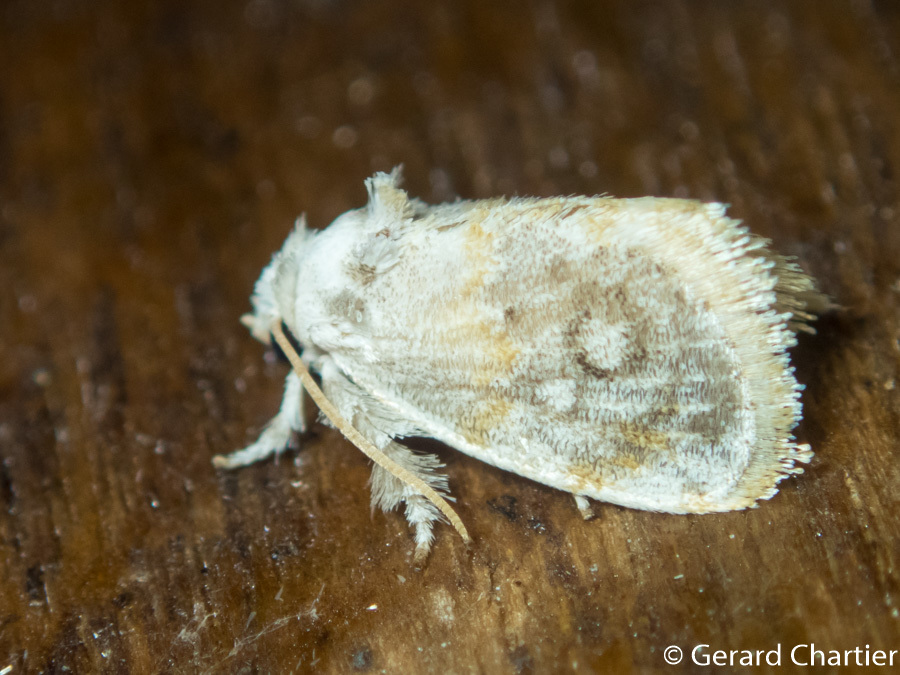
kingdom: Animalia
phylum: Arthropoda
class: Insecta
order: Lepidoptera
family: Limacodidae
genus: Kitanola
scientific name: Kitanola brachygnatha
